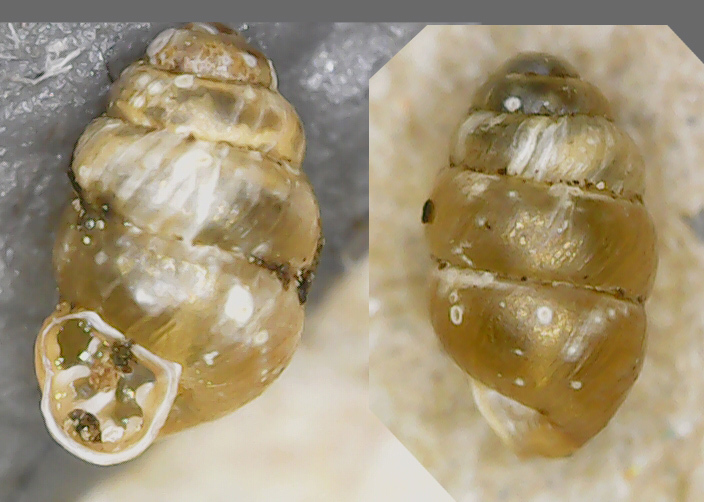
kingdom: Animalia
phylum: Mollusca
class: Gastropoda
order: Stylommatophora
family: Vertiginidae
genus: Vertigo
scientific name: Vertigo pusilla
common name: Wall whorl snail
